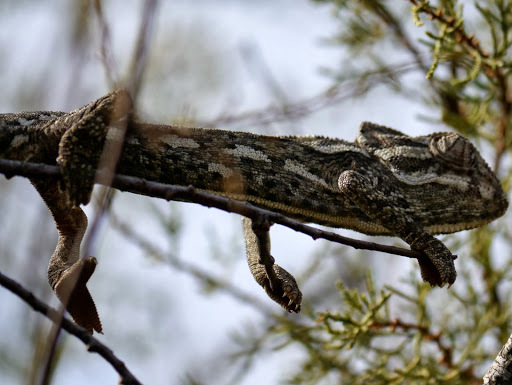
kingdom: Animalia
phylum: Chordata
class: Squamata
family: Chamaeleonidae
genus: Chamaeleo
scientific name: Chamaeleo chamaeleon
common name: Mediterranean chameleon
